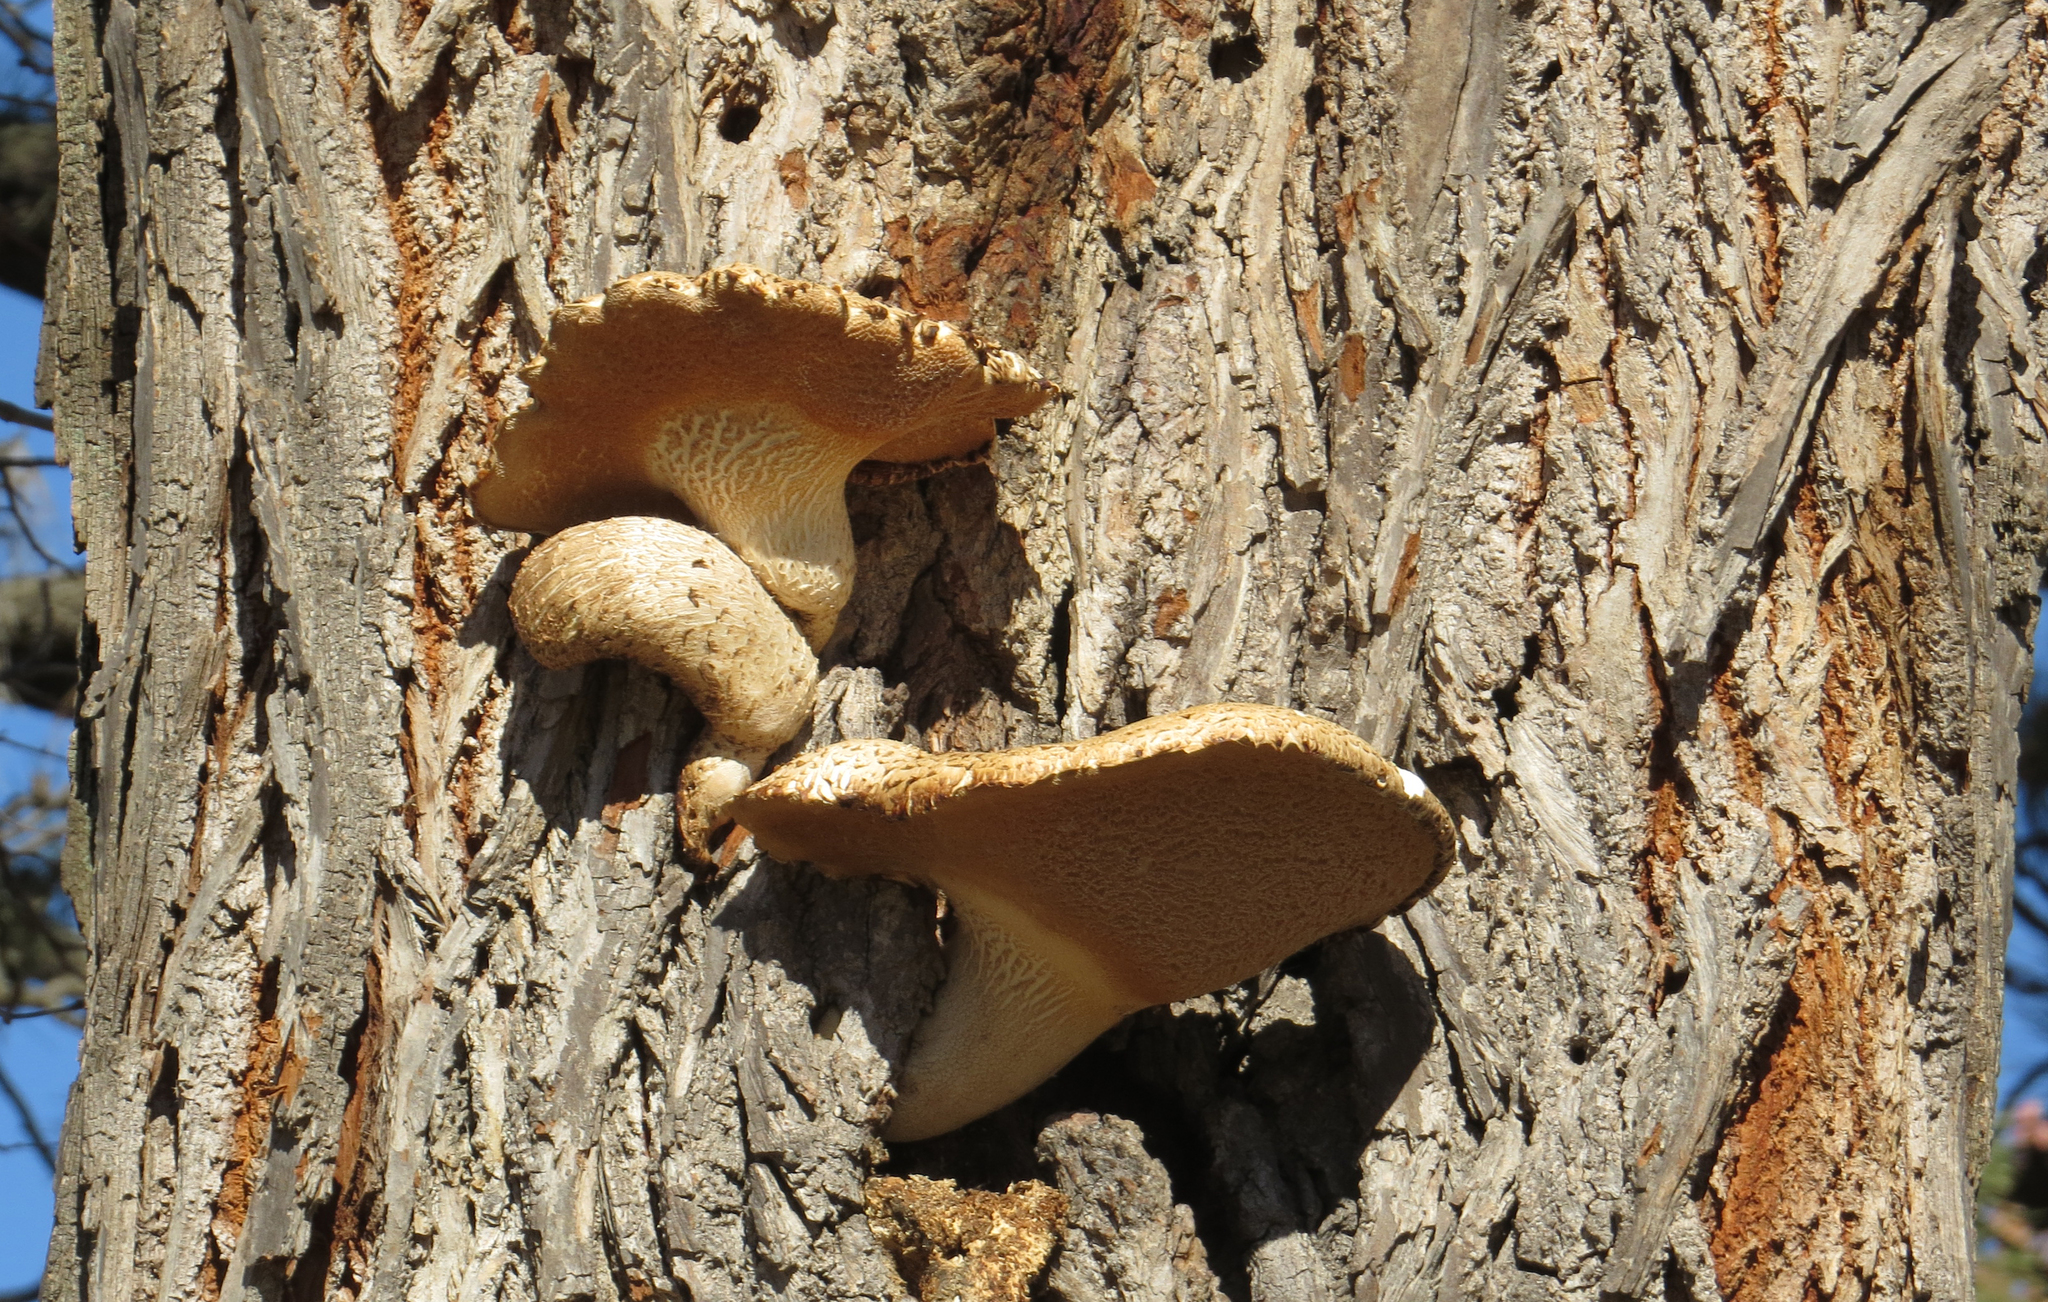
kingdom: Fungi
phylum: Basidiomycota
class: Agaricomycetes
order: Polyporales
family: Polyporaceae
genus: Cerioporus
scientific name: Cerioporus squamosus
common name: Dryad's saddle
